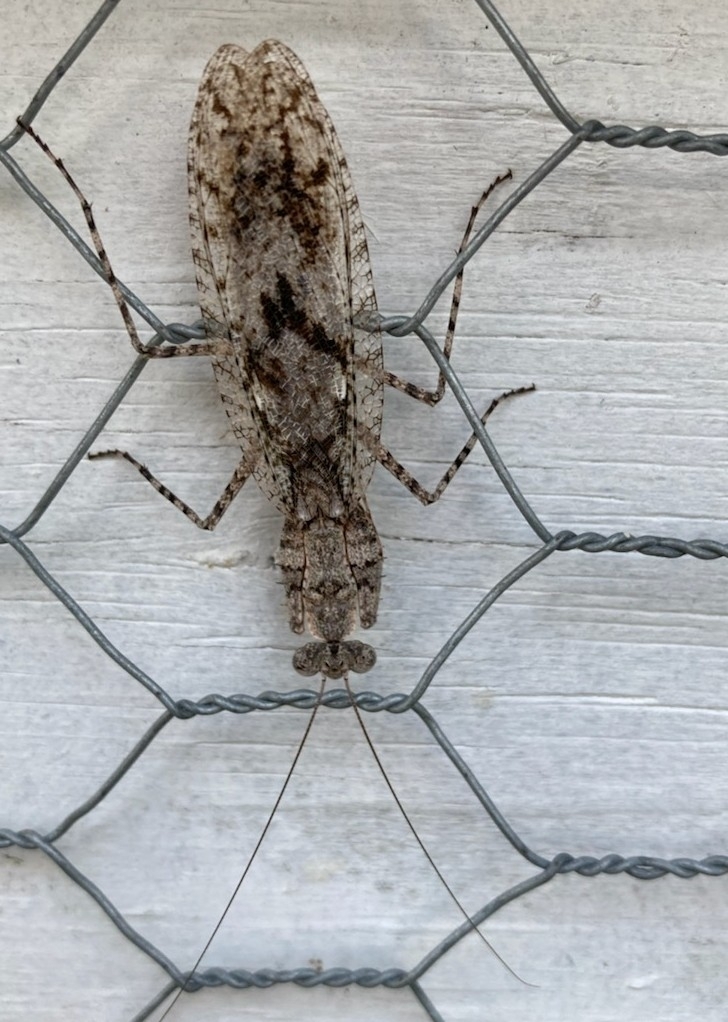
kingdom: Animalia
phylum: Arthropoda
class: Insecta
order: Mantodea
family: Epaphroditidae
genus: Gonatista
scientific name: Gonatista grisea
